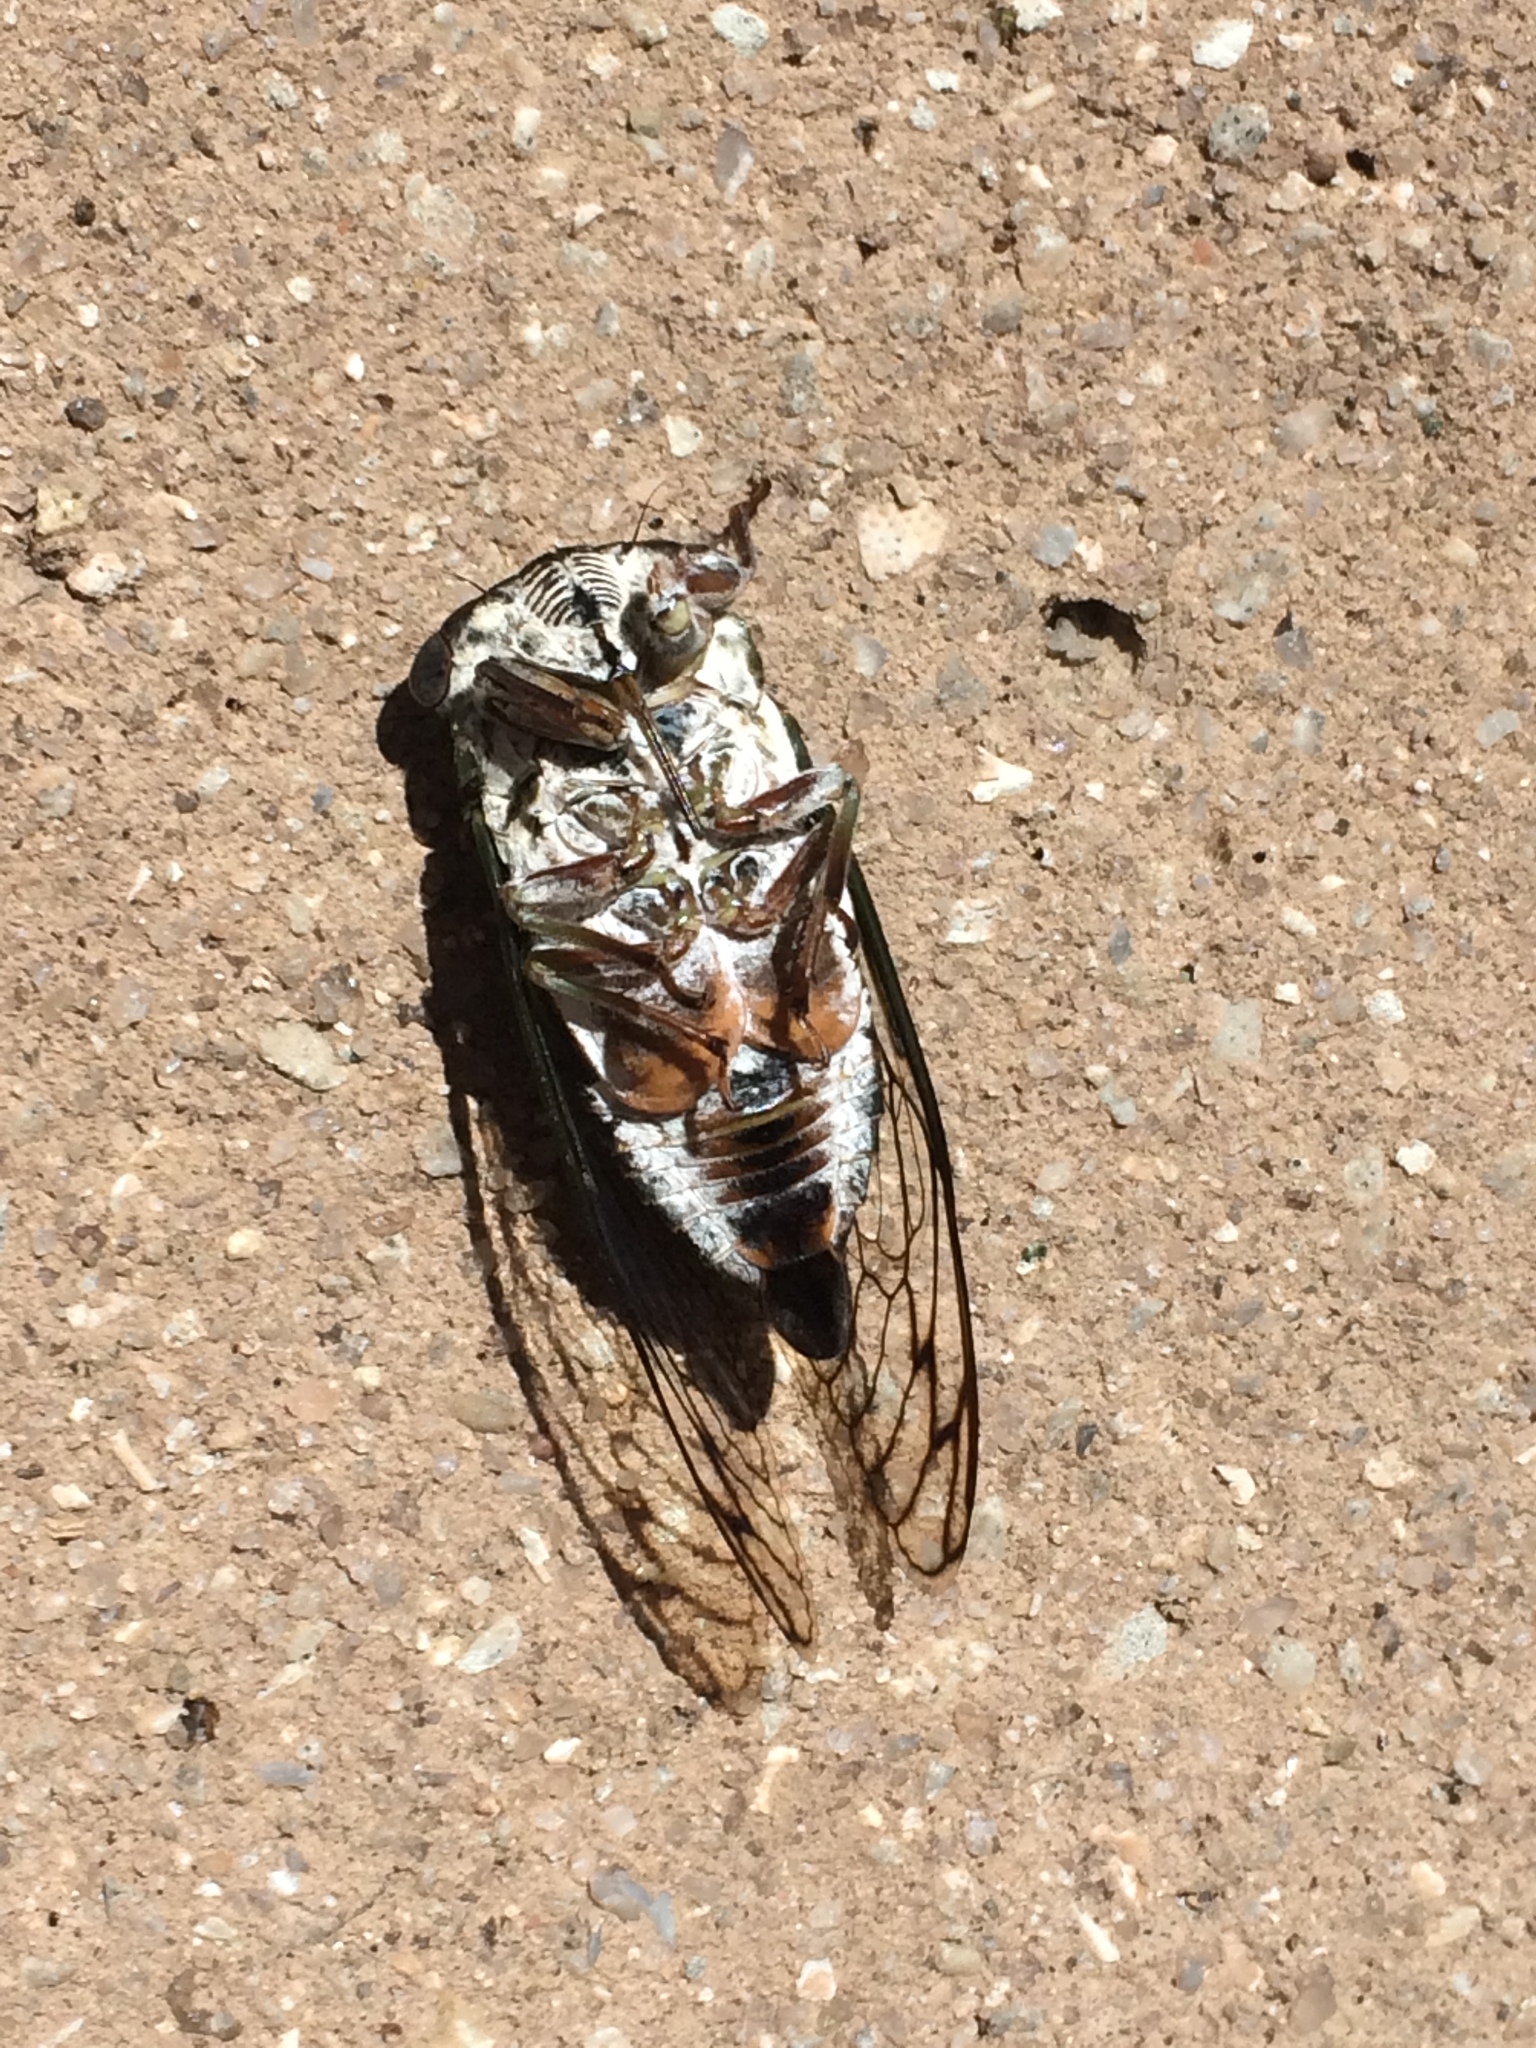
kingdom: Animalia
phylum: Arthropoda
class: Insecta
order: Hemiptera
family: Cicadidae
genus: Neotibicen
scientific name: Neotibicen davisi
